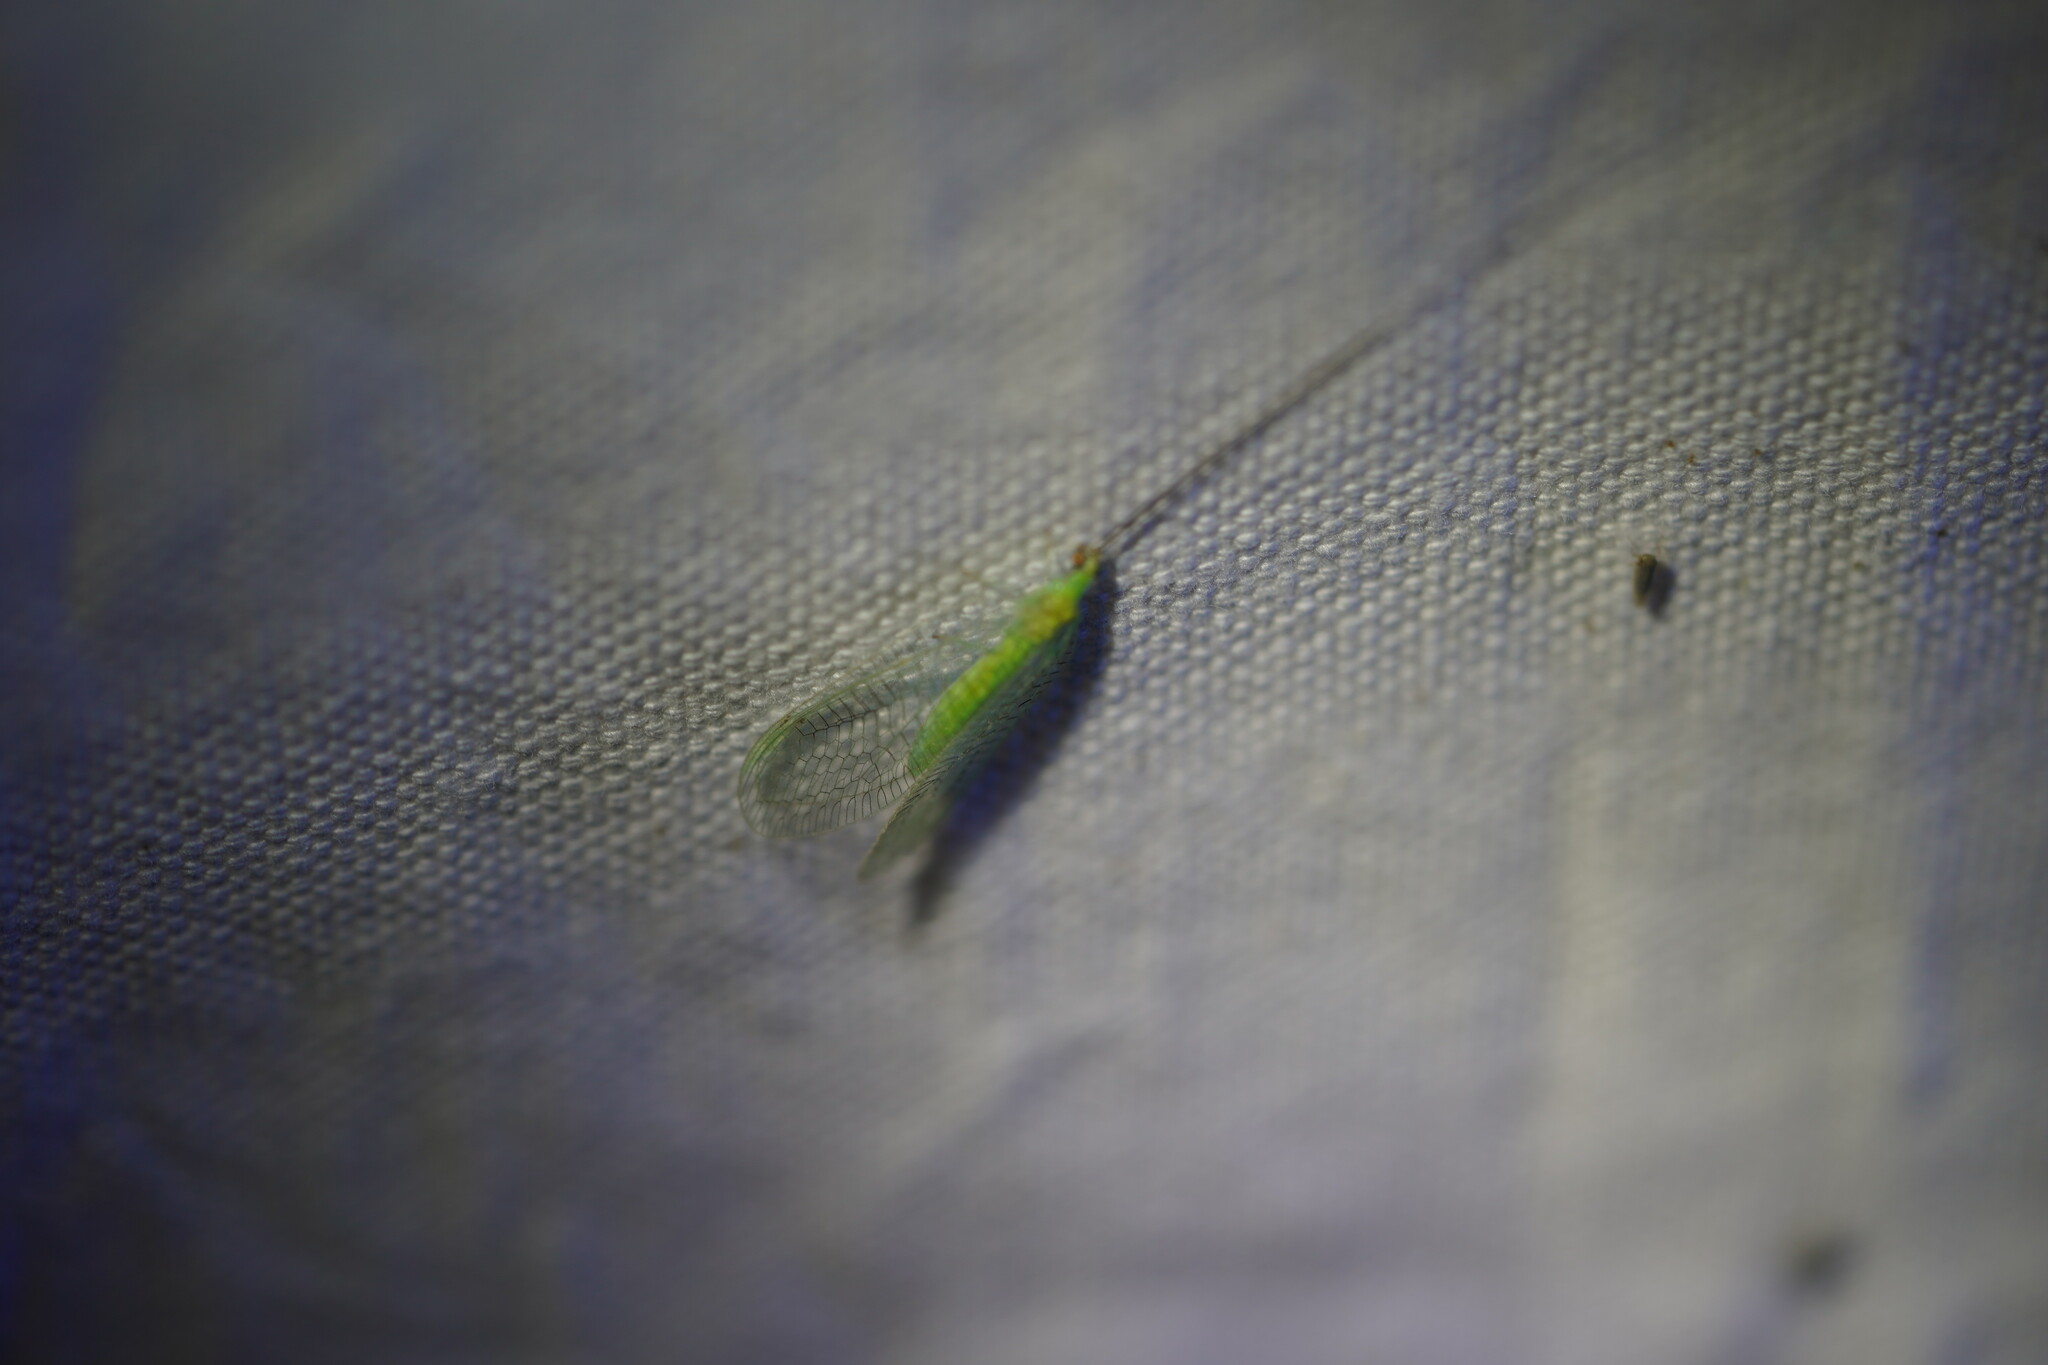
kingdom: Animalia
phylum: Arthropoda
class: Insecta
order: Neuroptera
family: Chrysopidae
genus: Leucochrysa
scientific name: Leucochrysa pavida
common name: Lichen-carrying green lacewing
